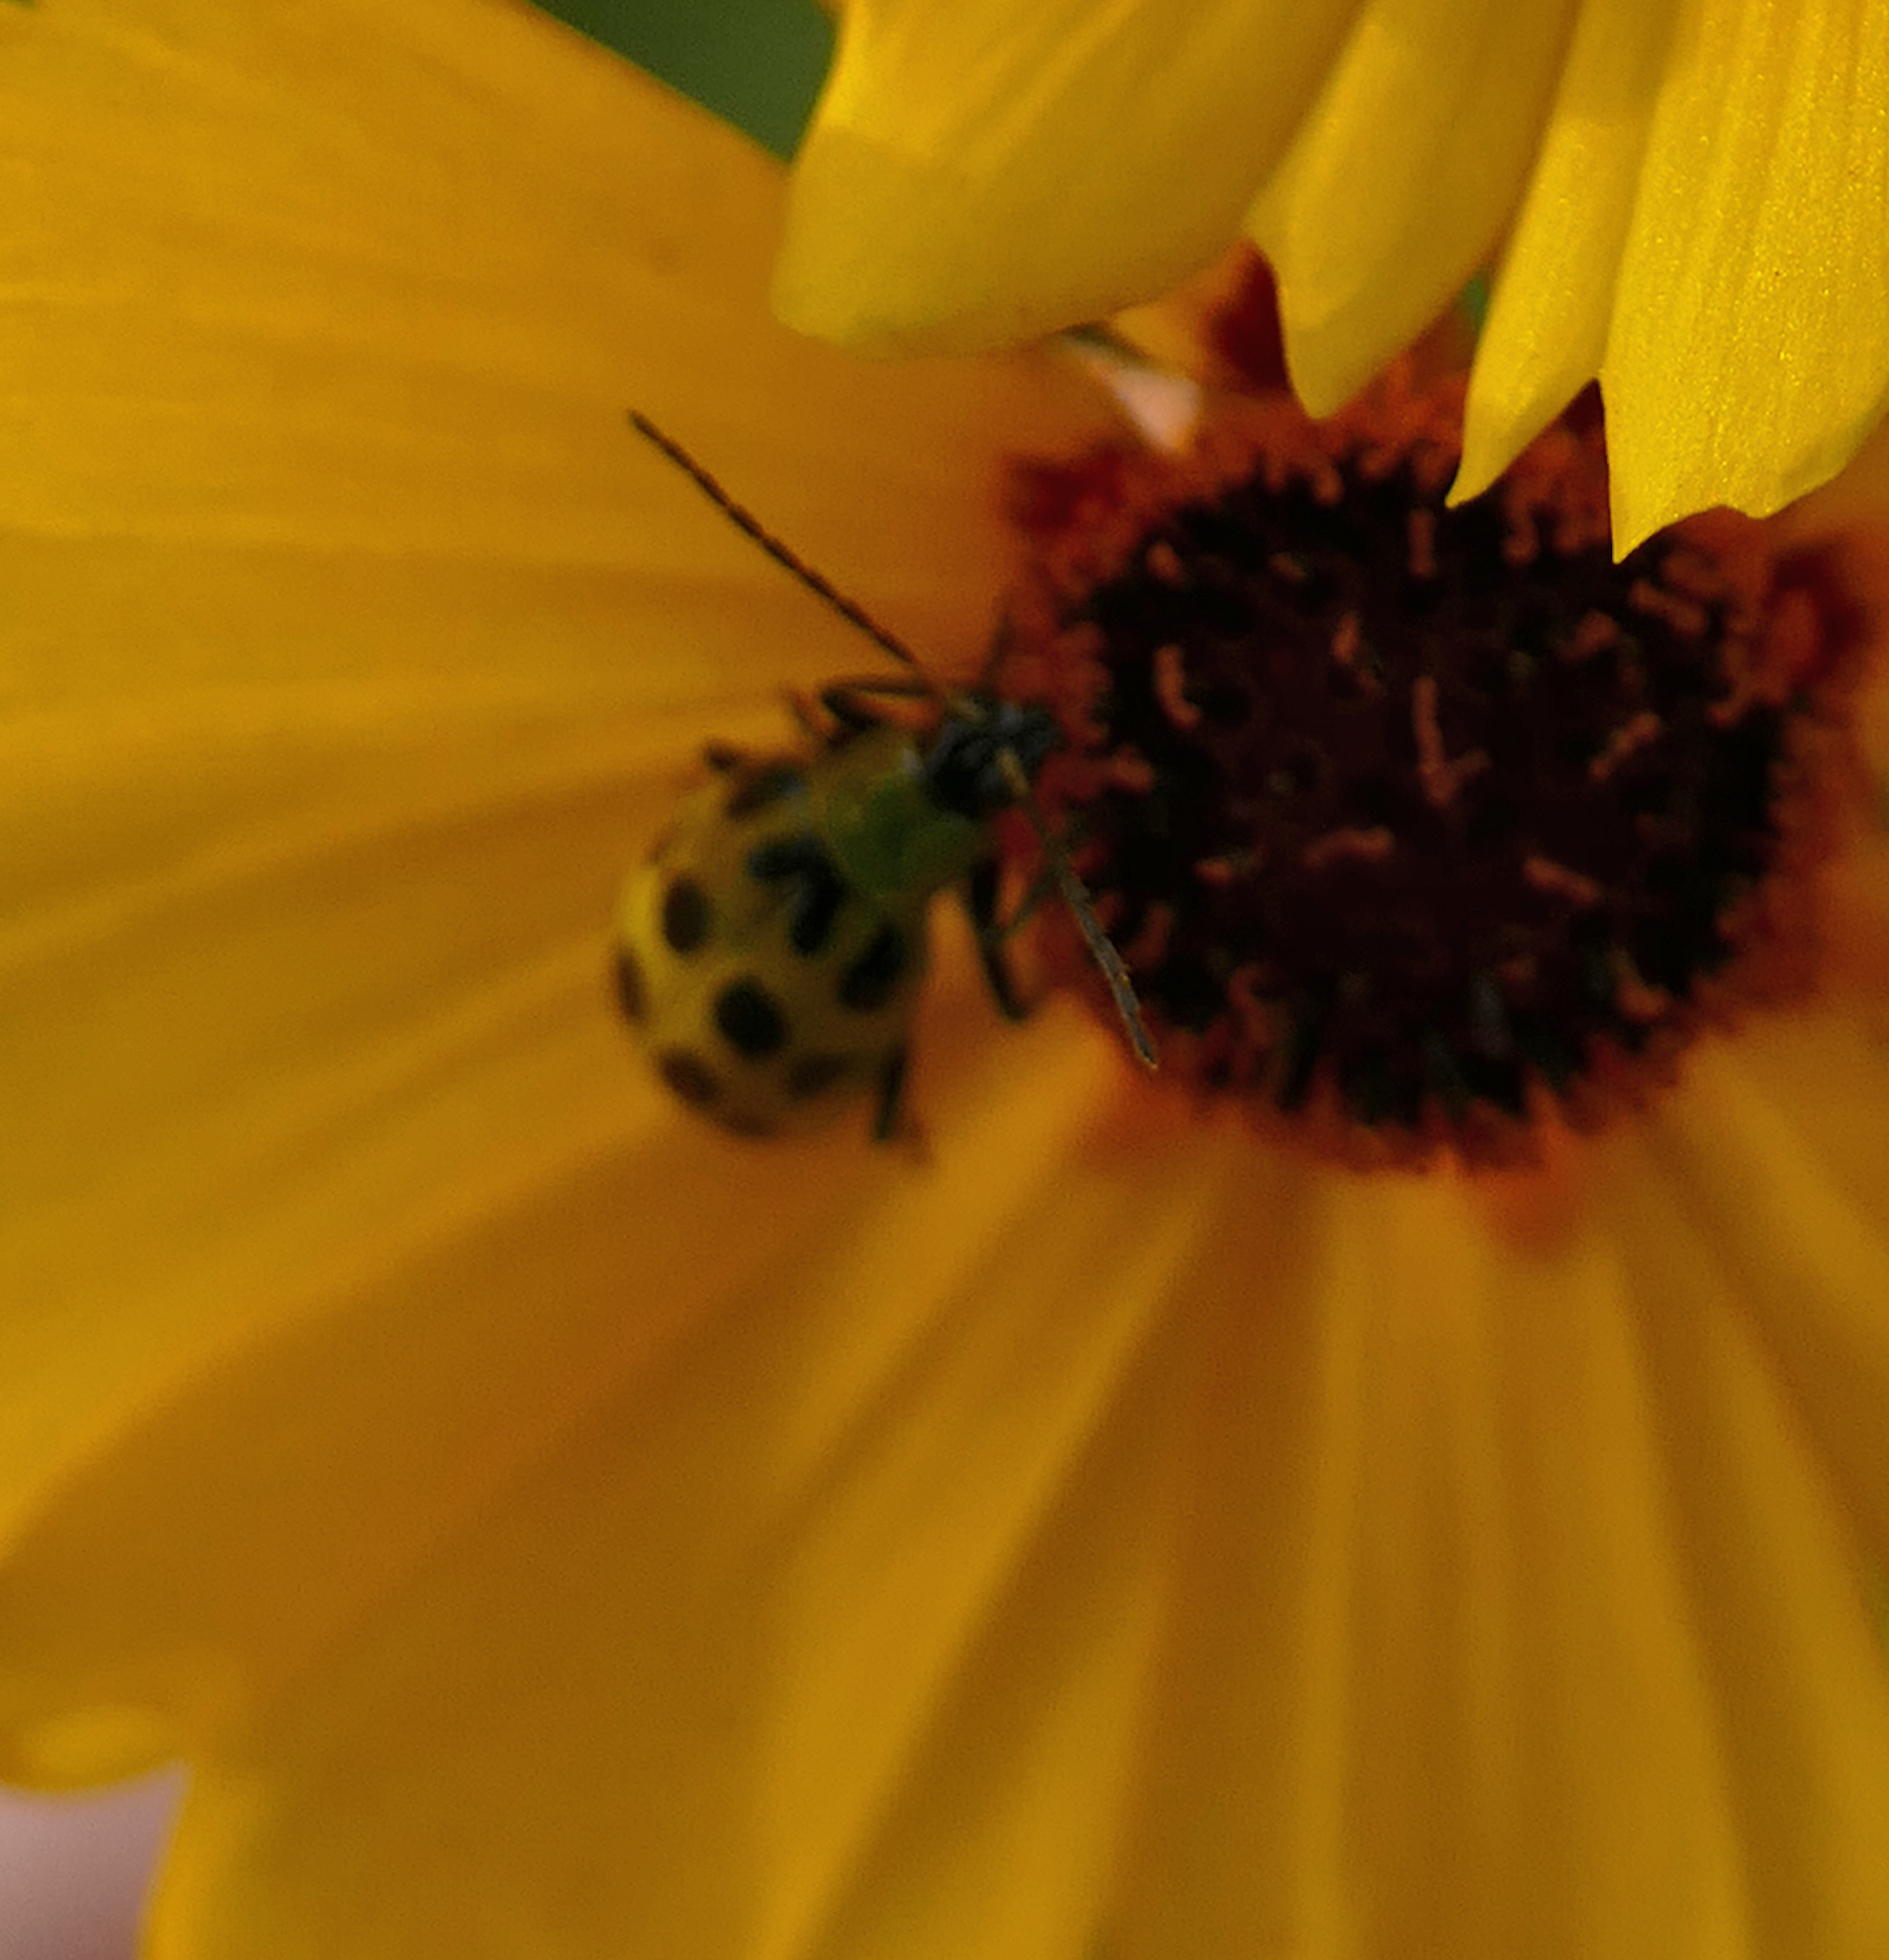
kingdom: Animalia
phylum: Arthropoda
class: Insecta
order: Coleoptera
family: Chrysomelidae
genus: Diabrotica
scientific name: Diabrotica undecimpunctata
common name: Spotted cucumber beetle
